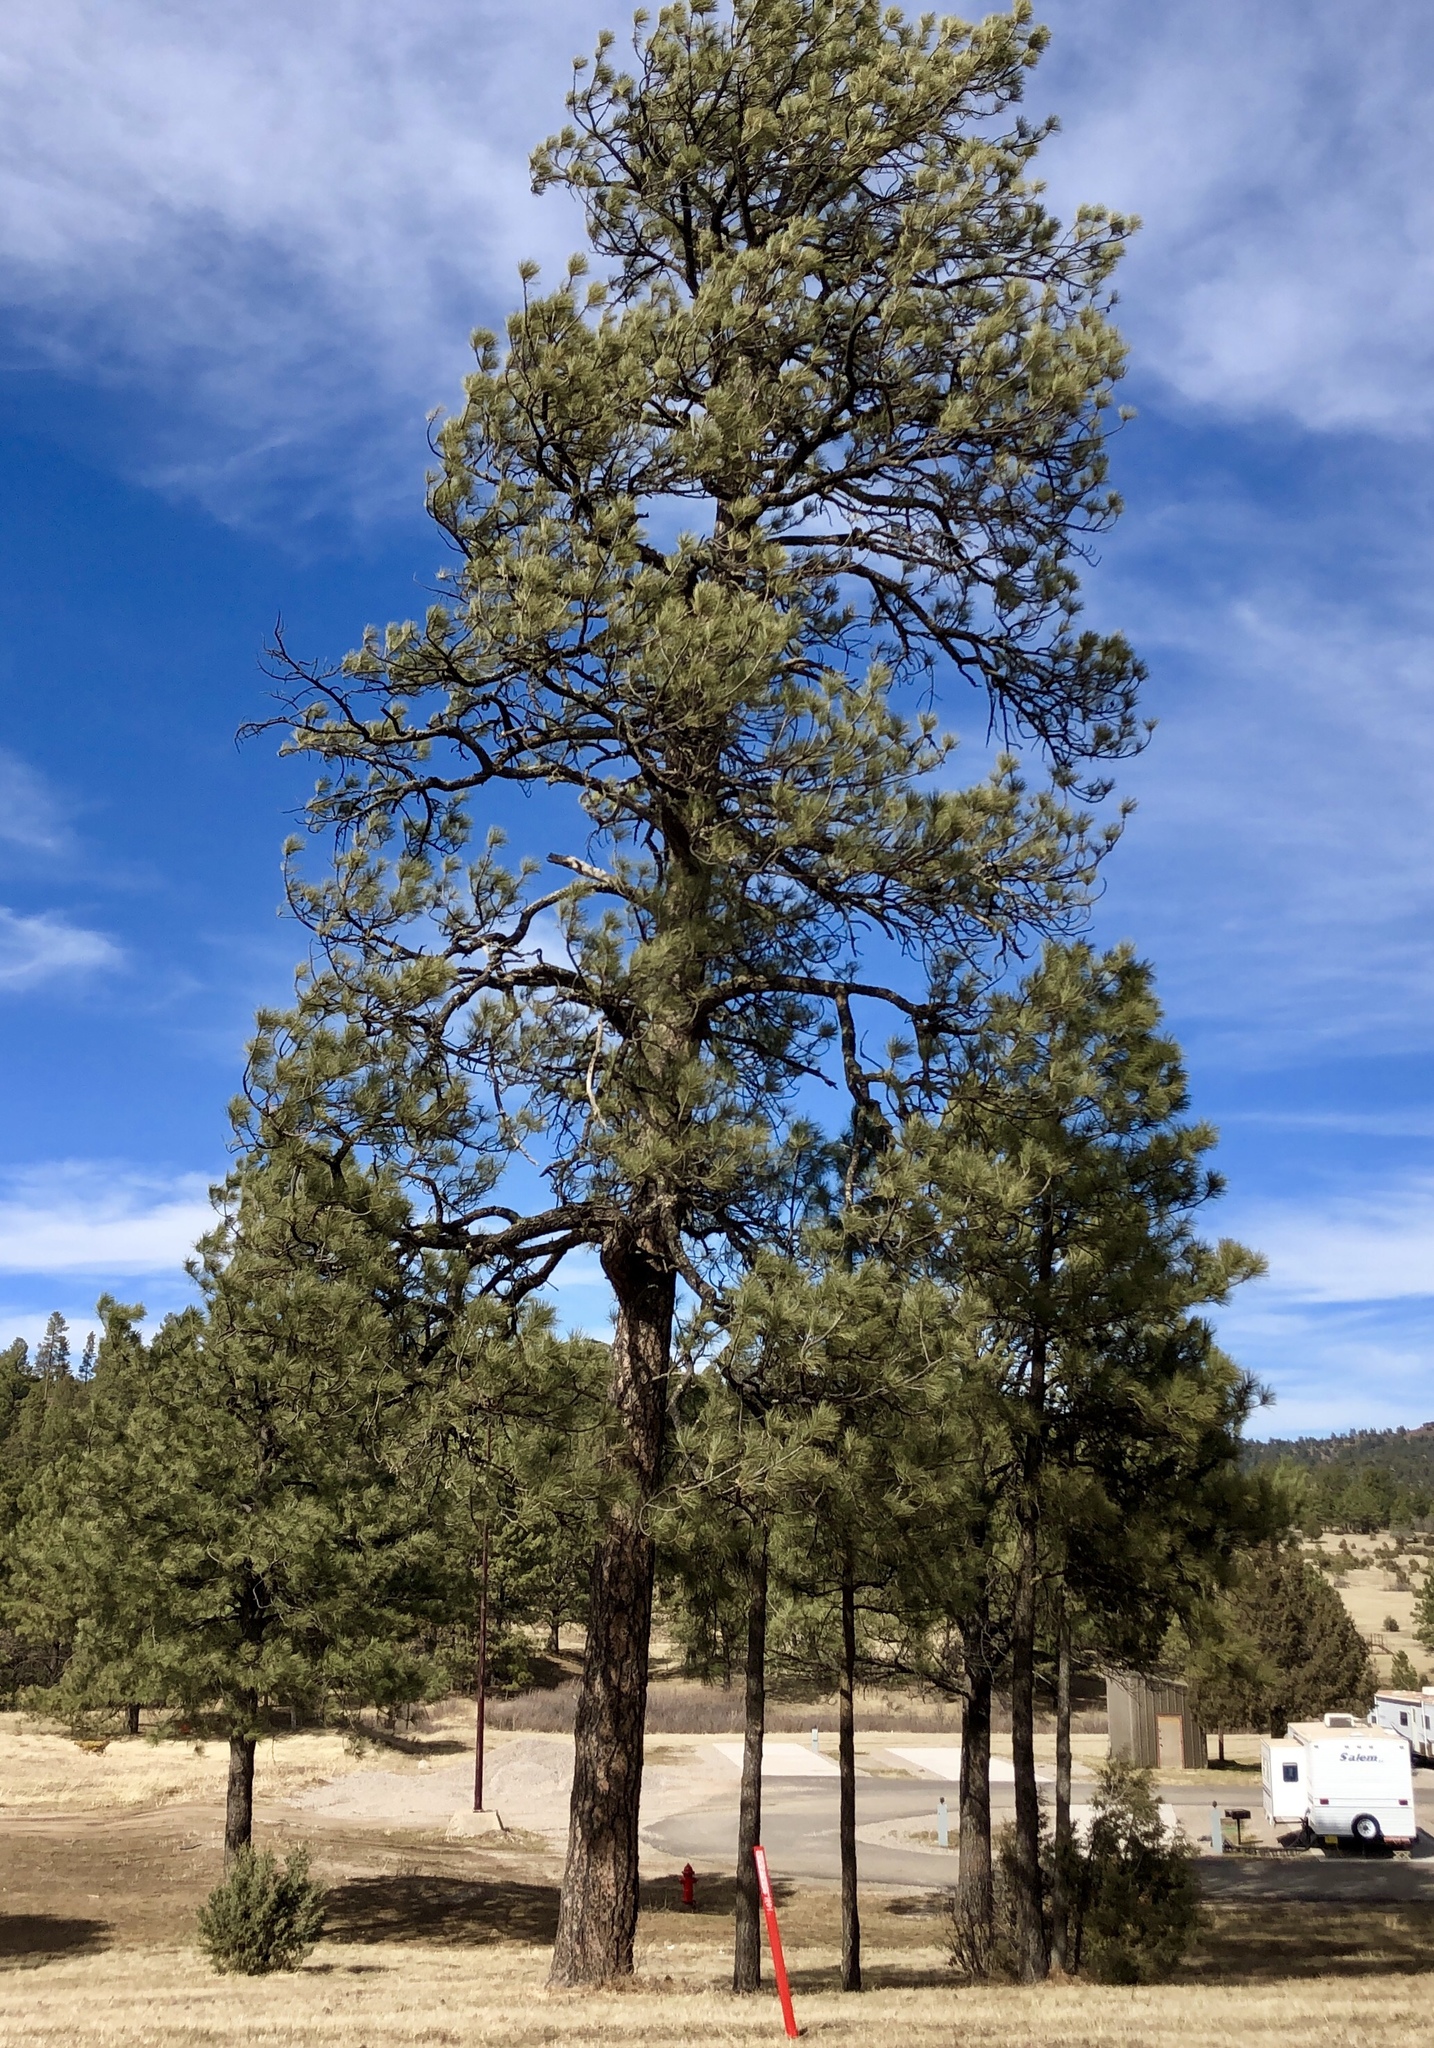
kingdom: Plantae
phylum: Tracheophyta
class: Pinopsida
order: Pinales
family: Pinaceae
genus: Pinus
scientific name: Pinus ponderosa
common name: Western yellow-pine
